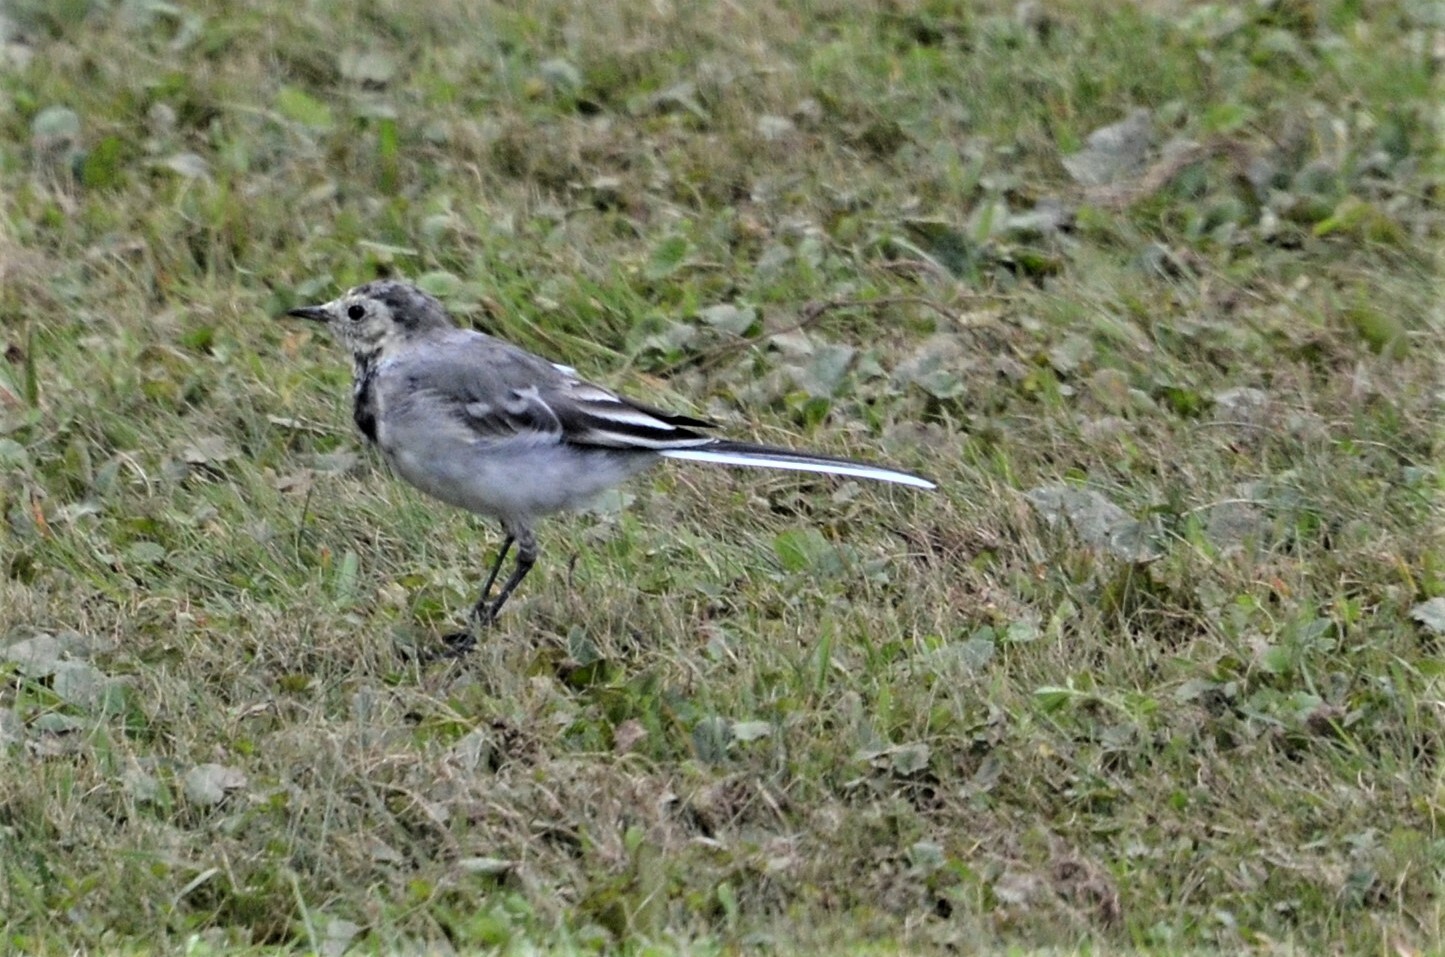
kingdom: Animalia
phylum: Chordata
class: Aves
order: Passeriformes
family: Motacillidae
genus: Motacilla
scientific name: Motacilla alba
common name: White wagtail
